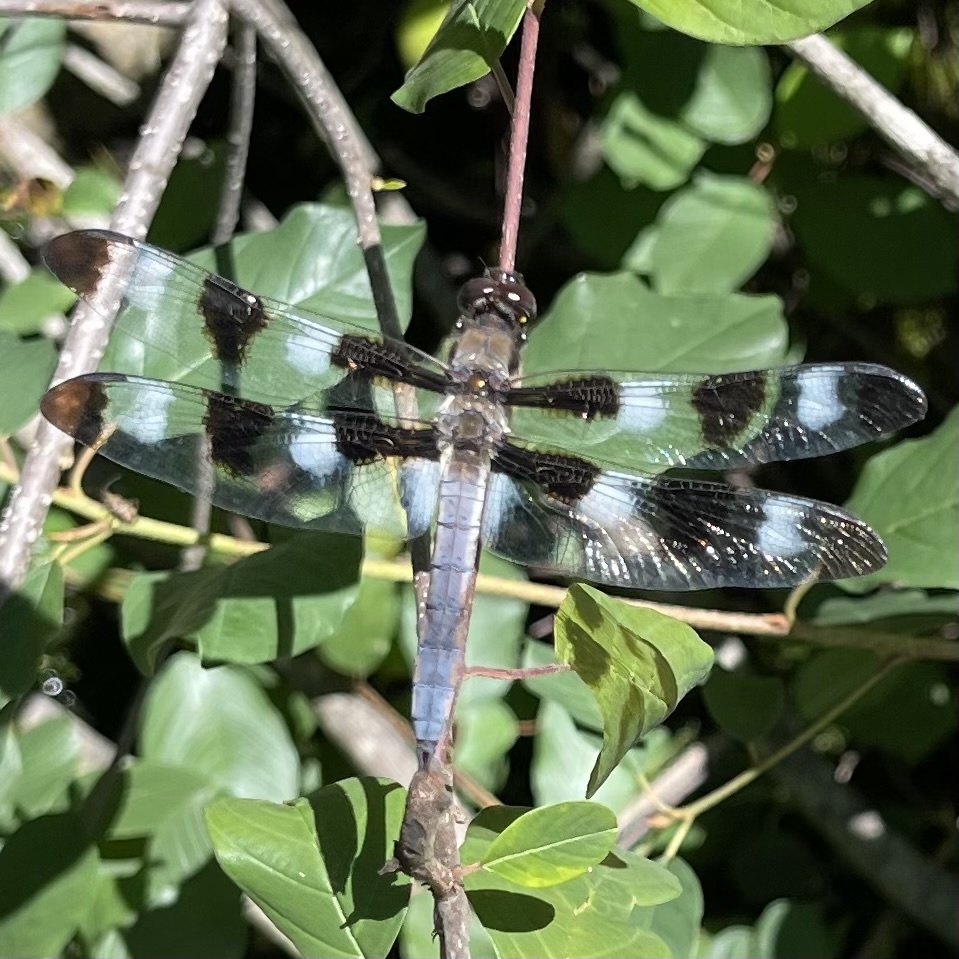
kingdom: Animalia
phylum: Arthropoda
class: Insecta
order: Odonata
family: Libellulidae
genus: Libellula
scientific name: Libellula pulchella
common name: Twelve-spotted skimmer
